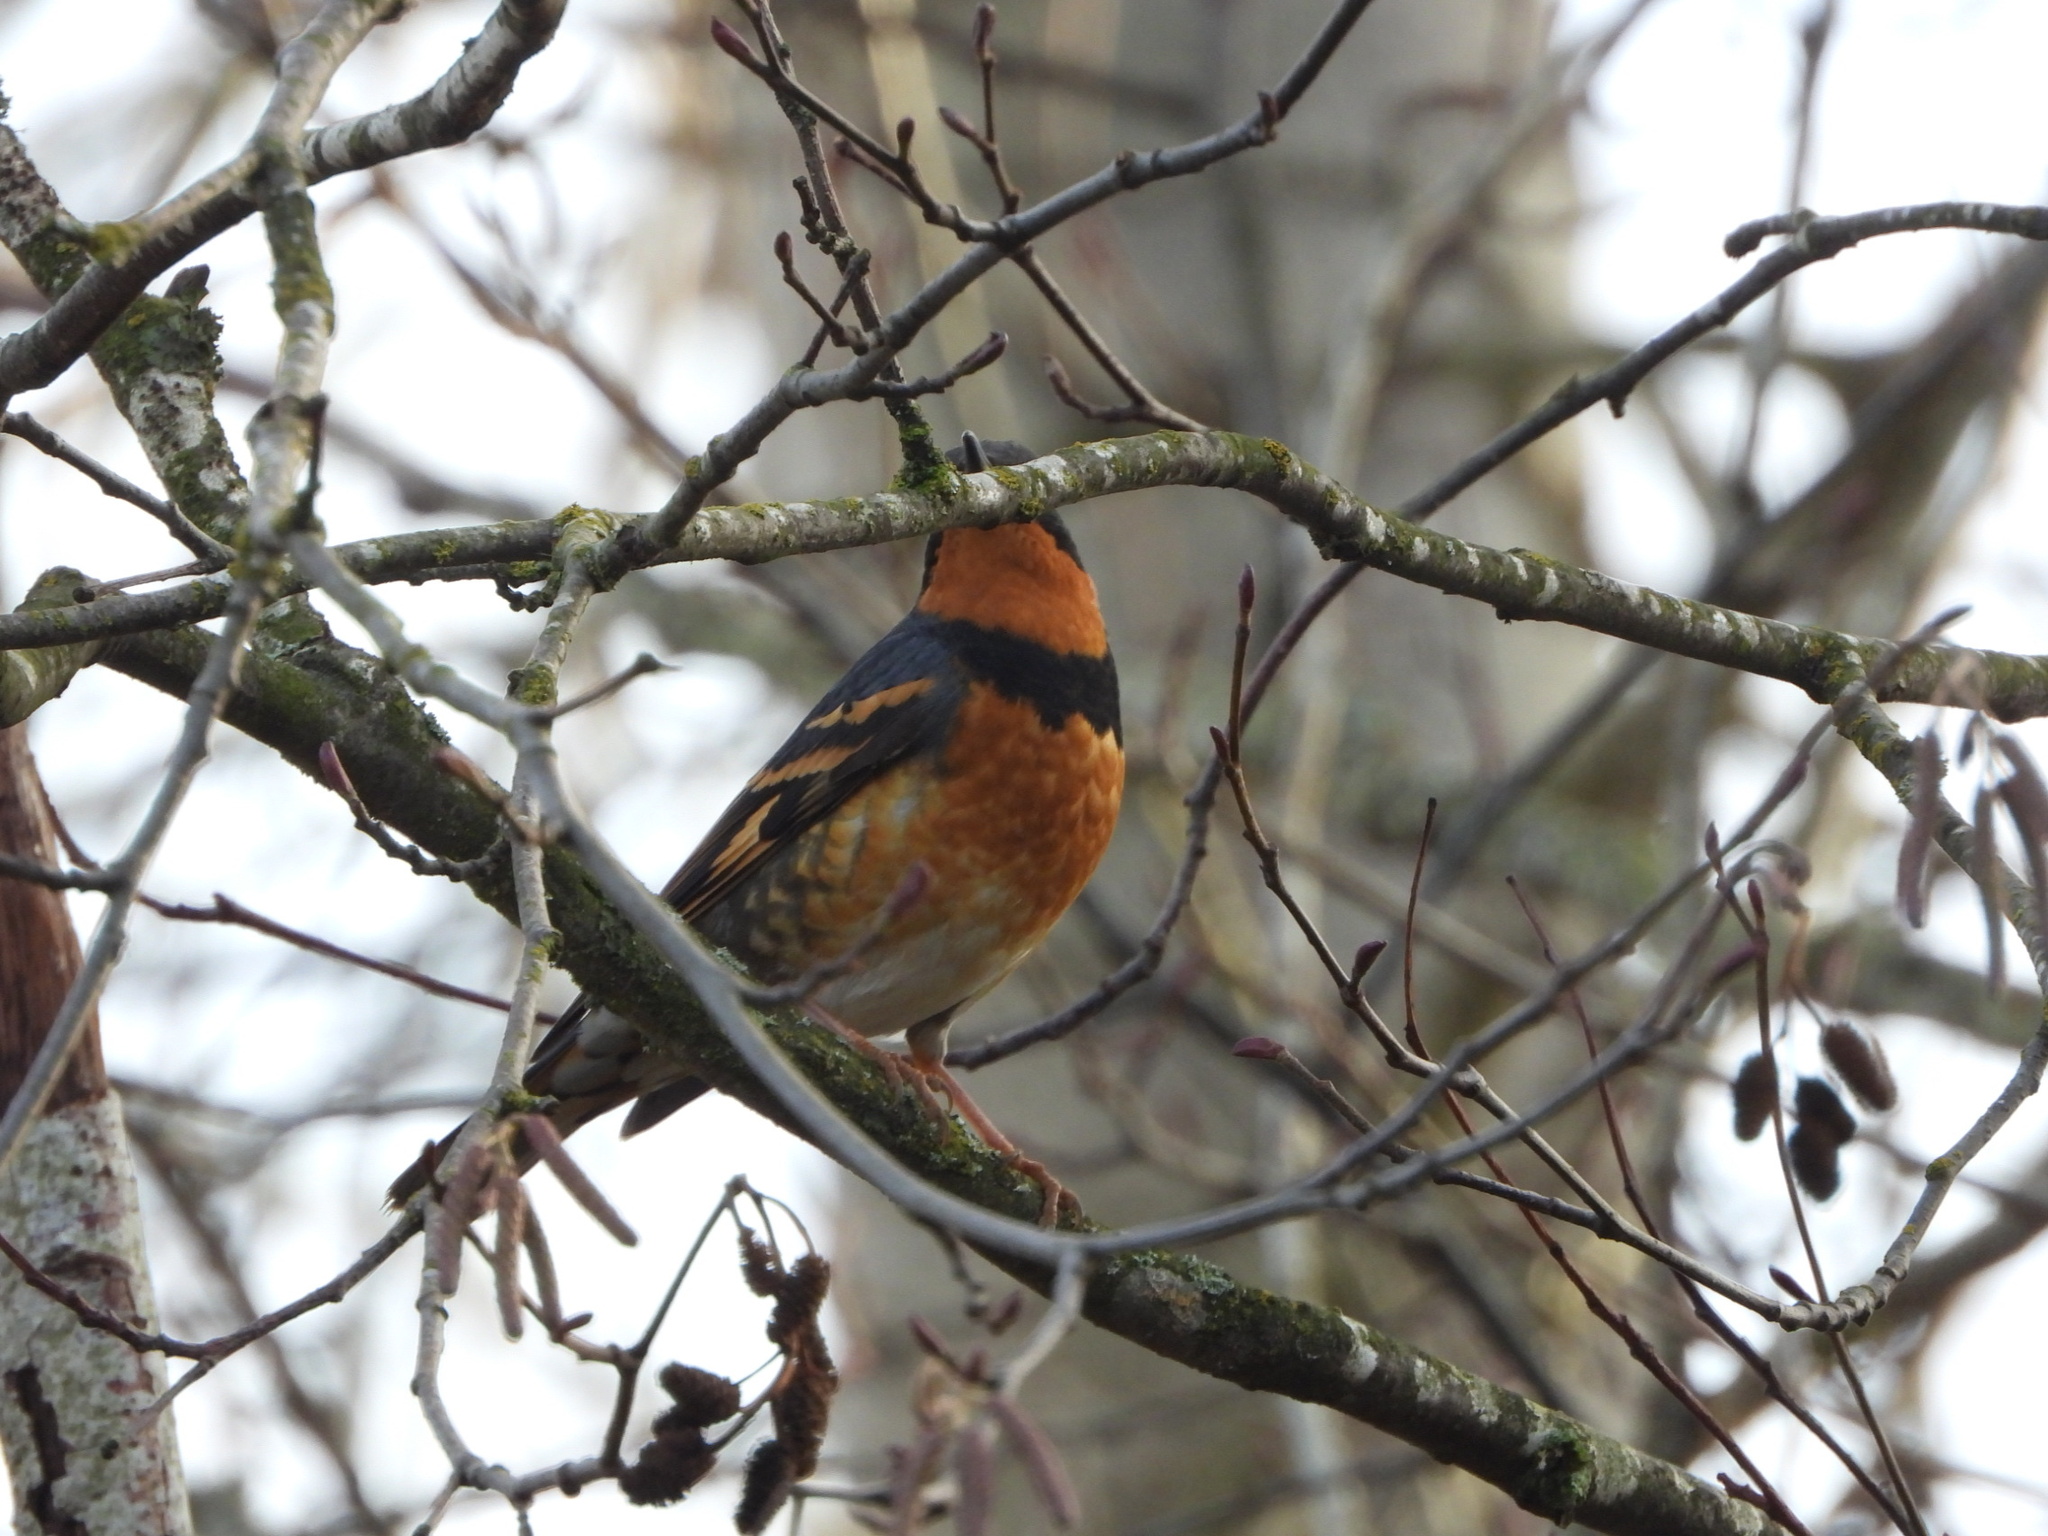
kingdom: Animalia
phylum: Chordata
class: Aves
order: Passeriformes
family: Turdidae
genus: Ixoreus
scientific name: Ixoreus naevius
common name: Varied thrush
